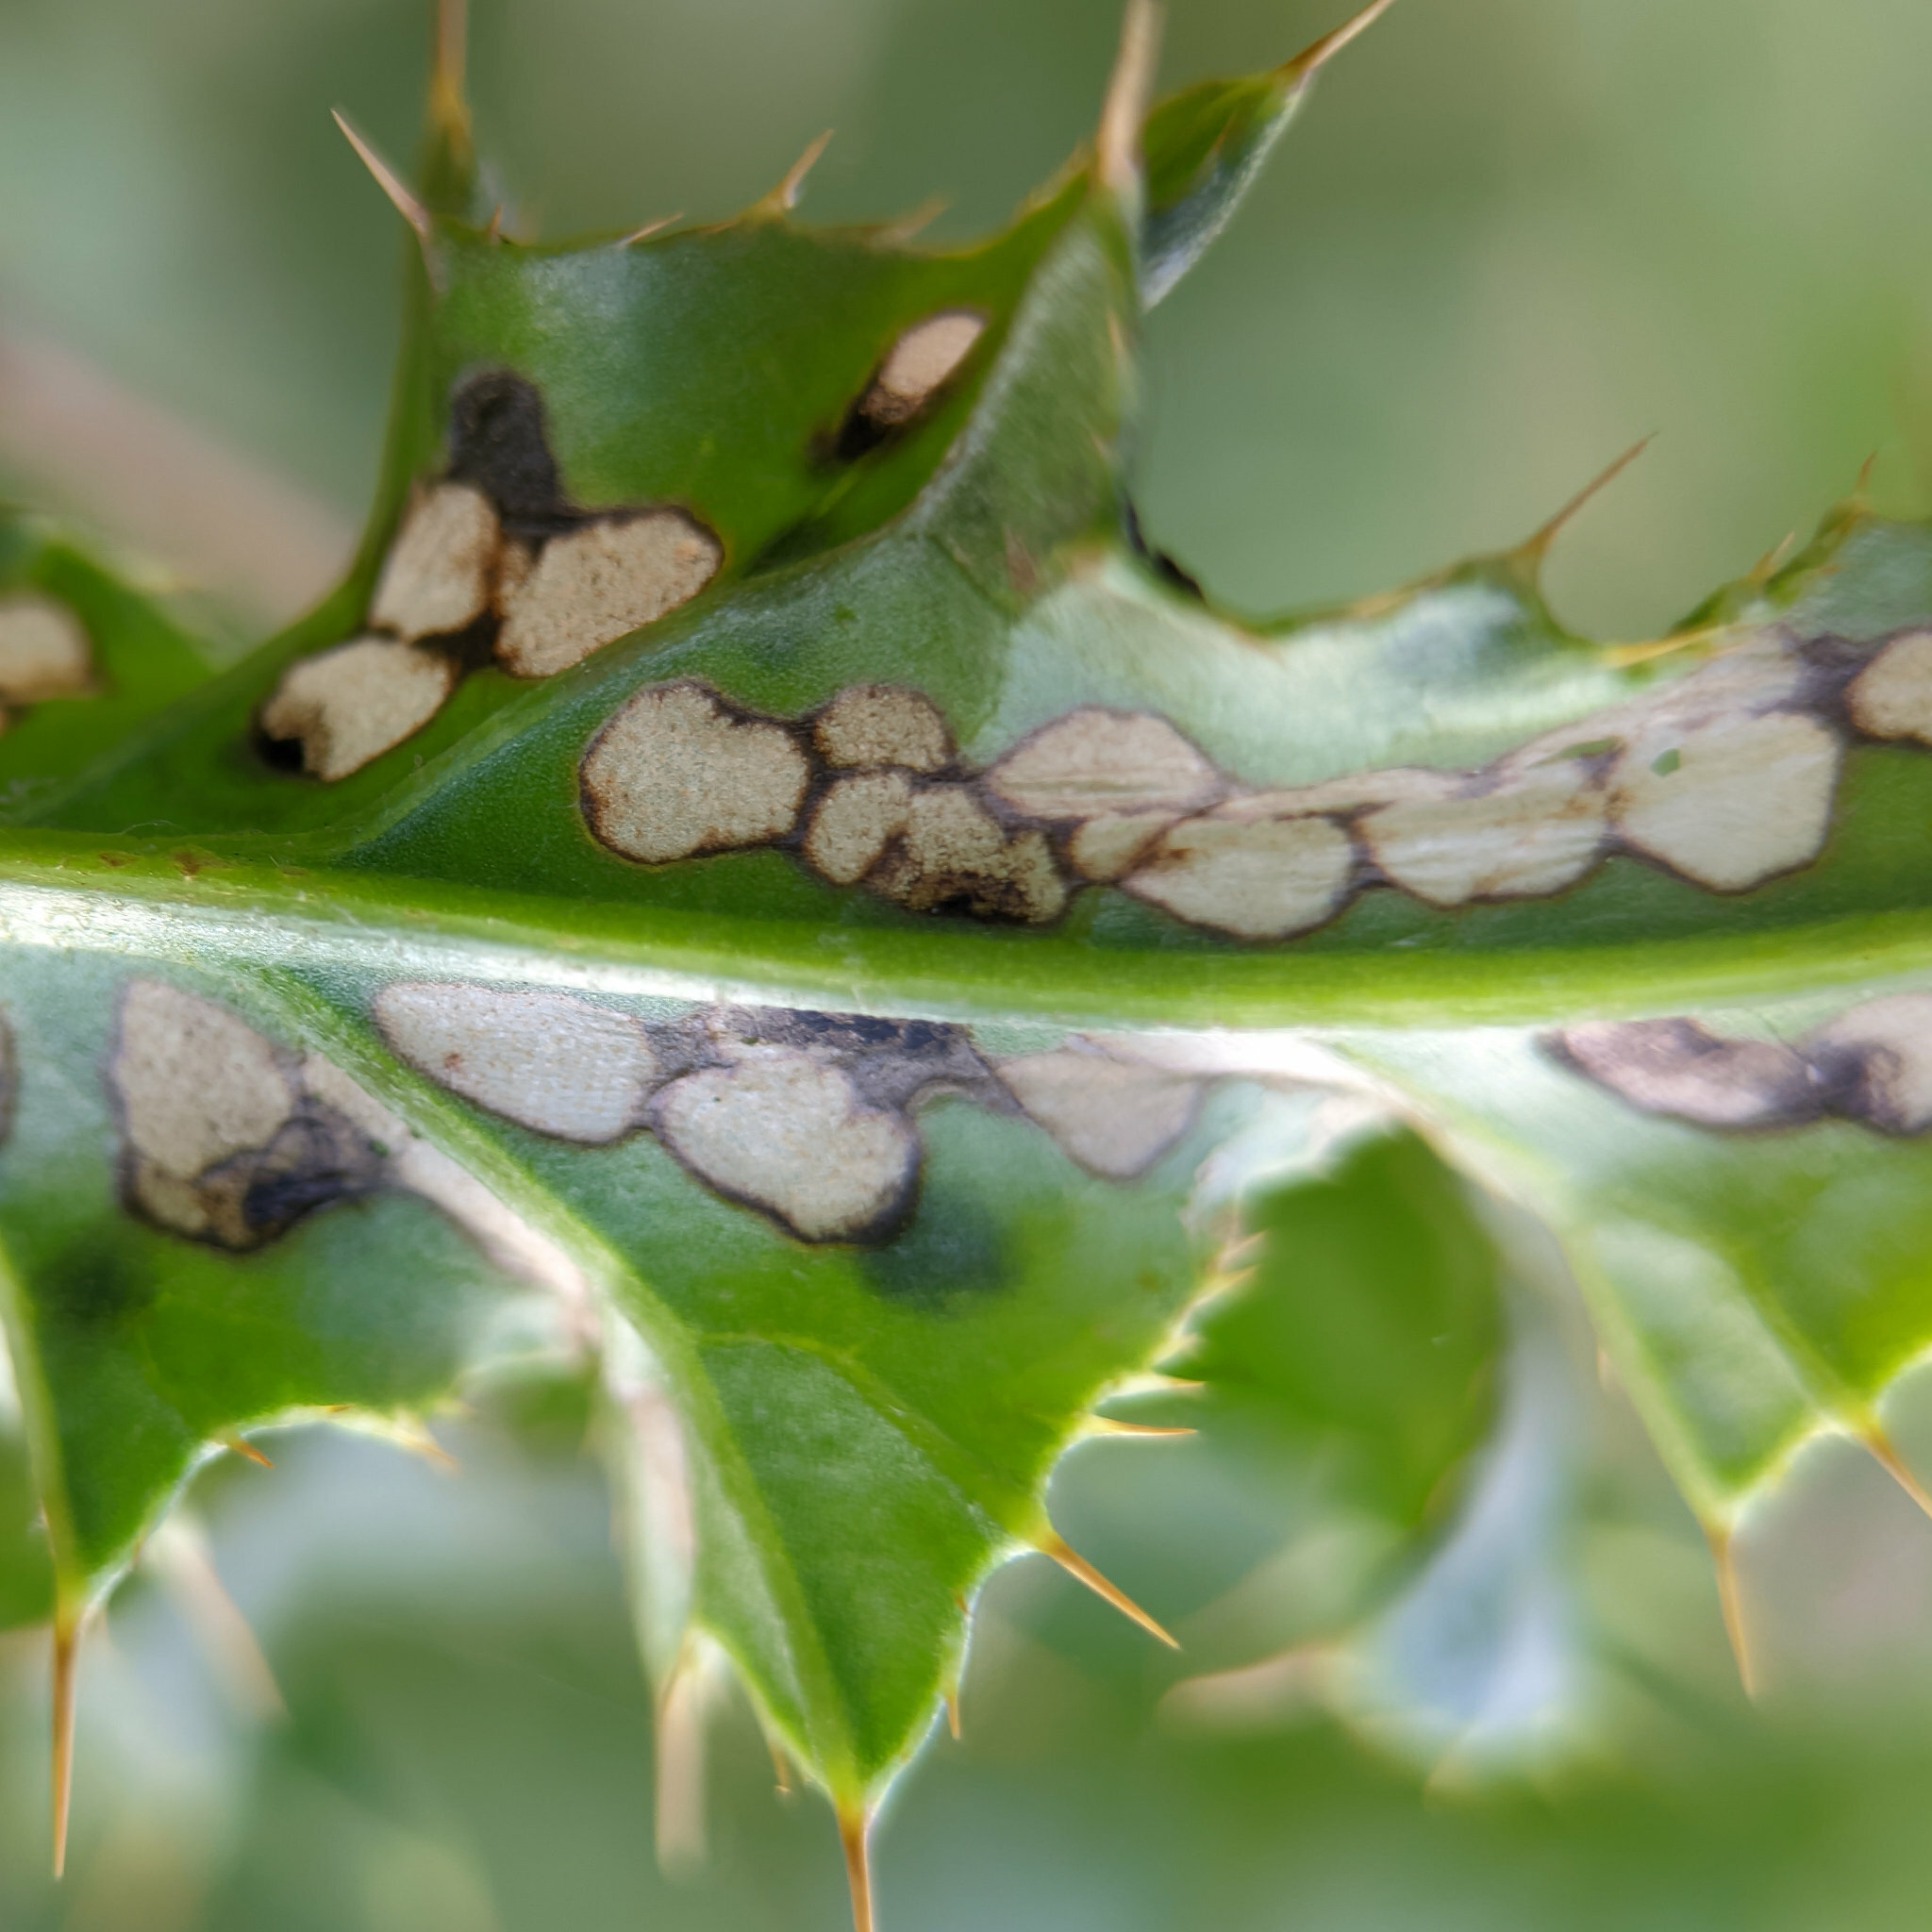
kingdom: Animalia
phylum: Arthropoda
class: Insecta
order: Coleoptera
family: Chrysomelidae
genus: Cassida
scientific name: Cassida rubiginosa
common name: Thistle tortoise beetle
